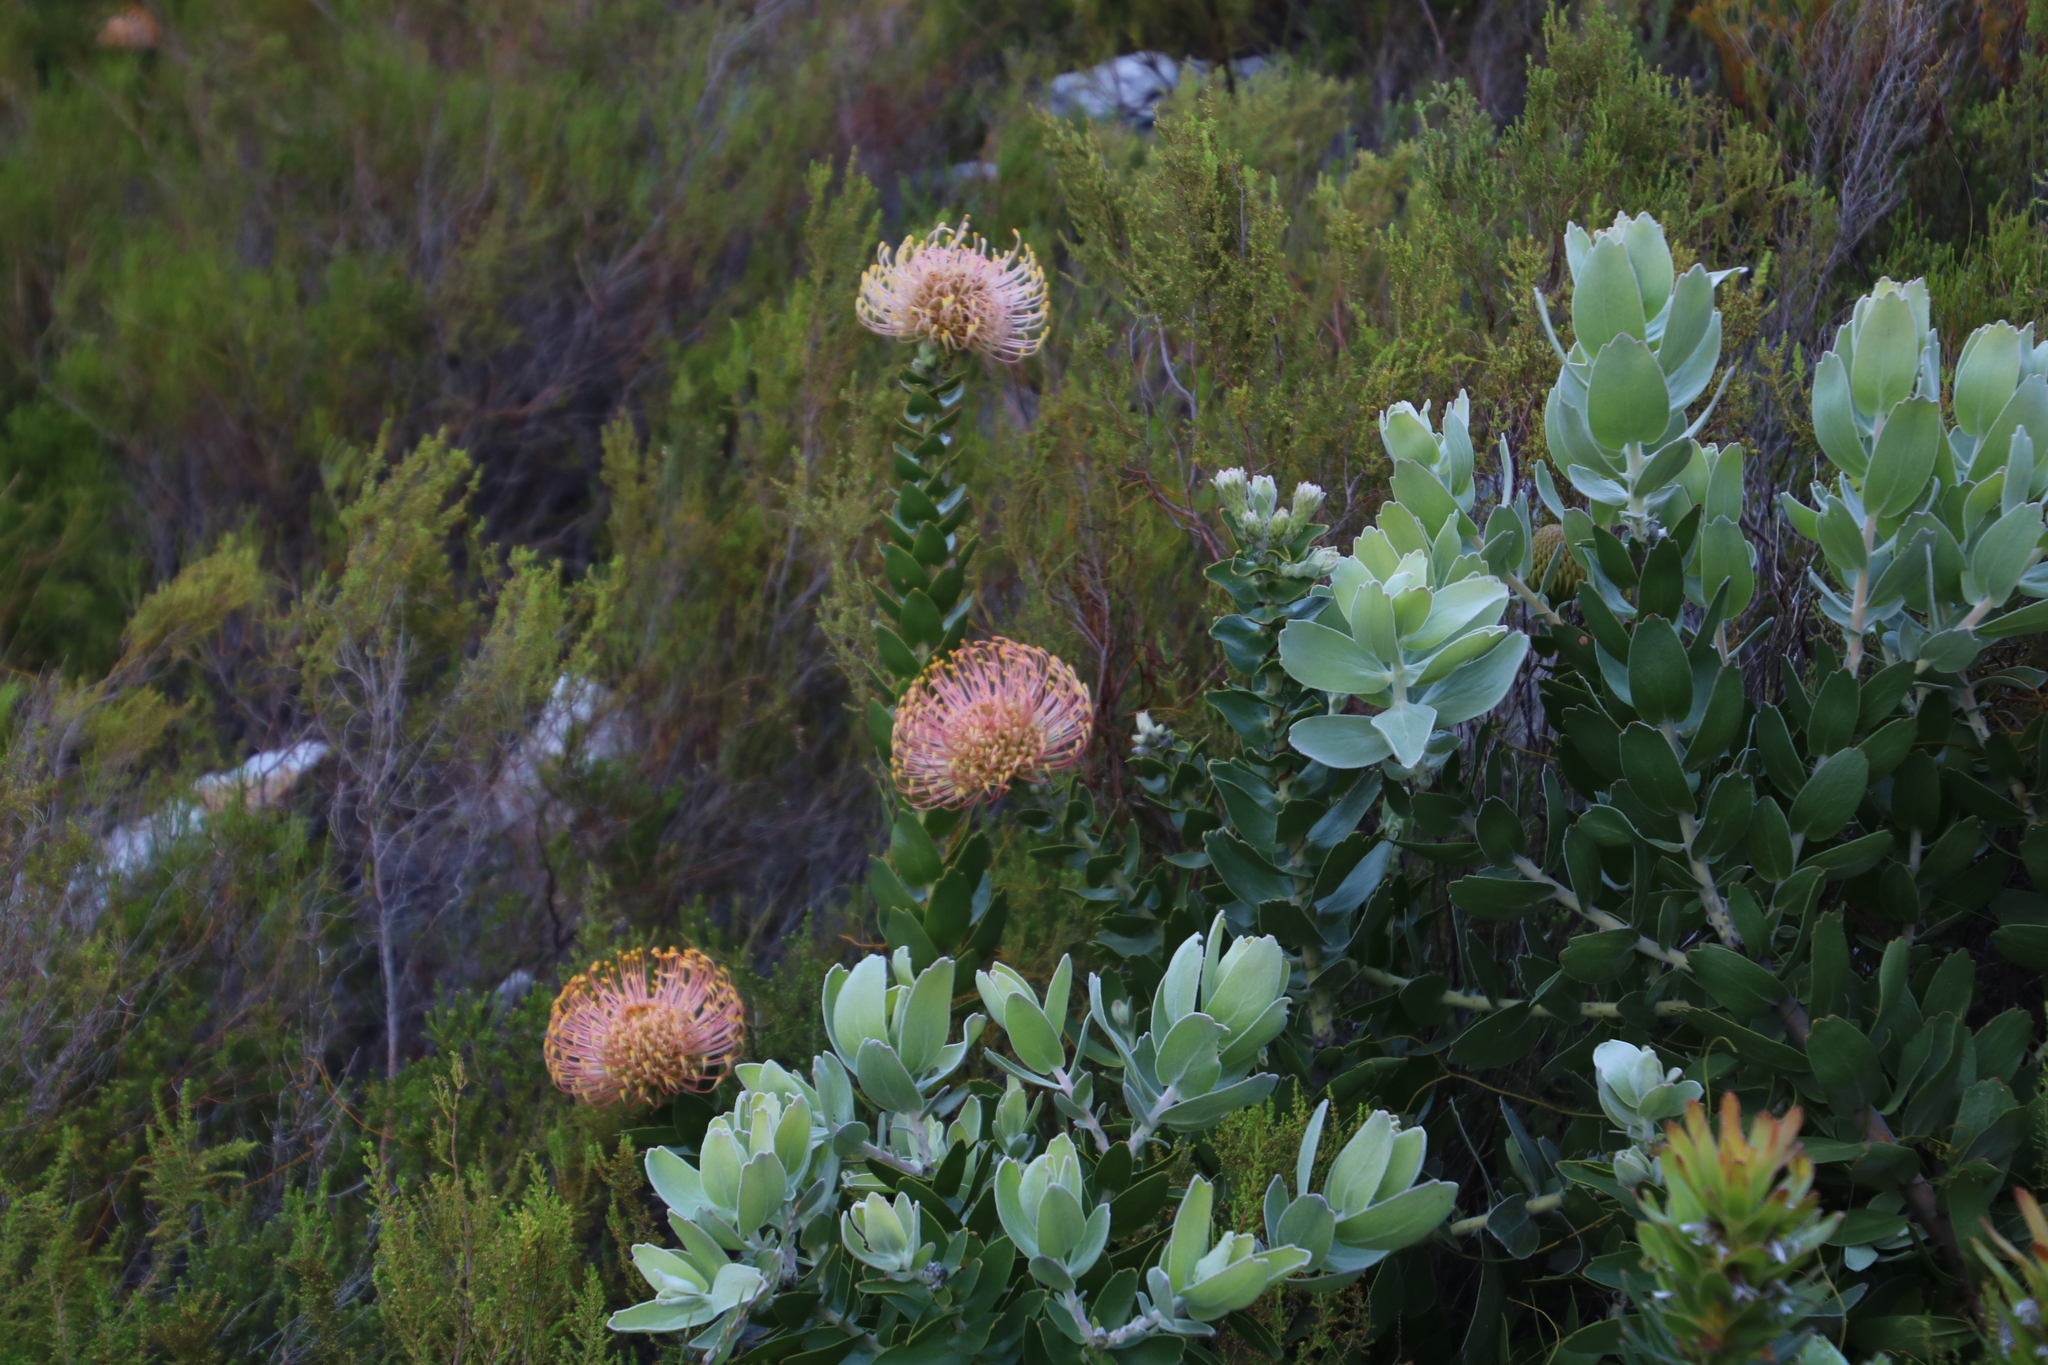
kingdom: Plantae
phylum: Tracheophyta
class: Magnoliopsida
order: Proteales
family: Proteaceae
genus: Leucospermum
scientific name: Leucospermum cordifolium
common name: Red pincushion-protea
